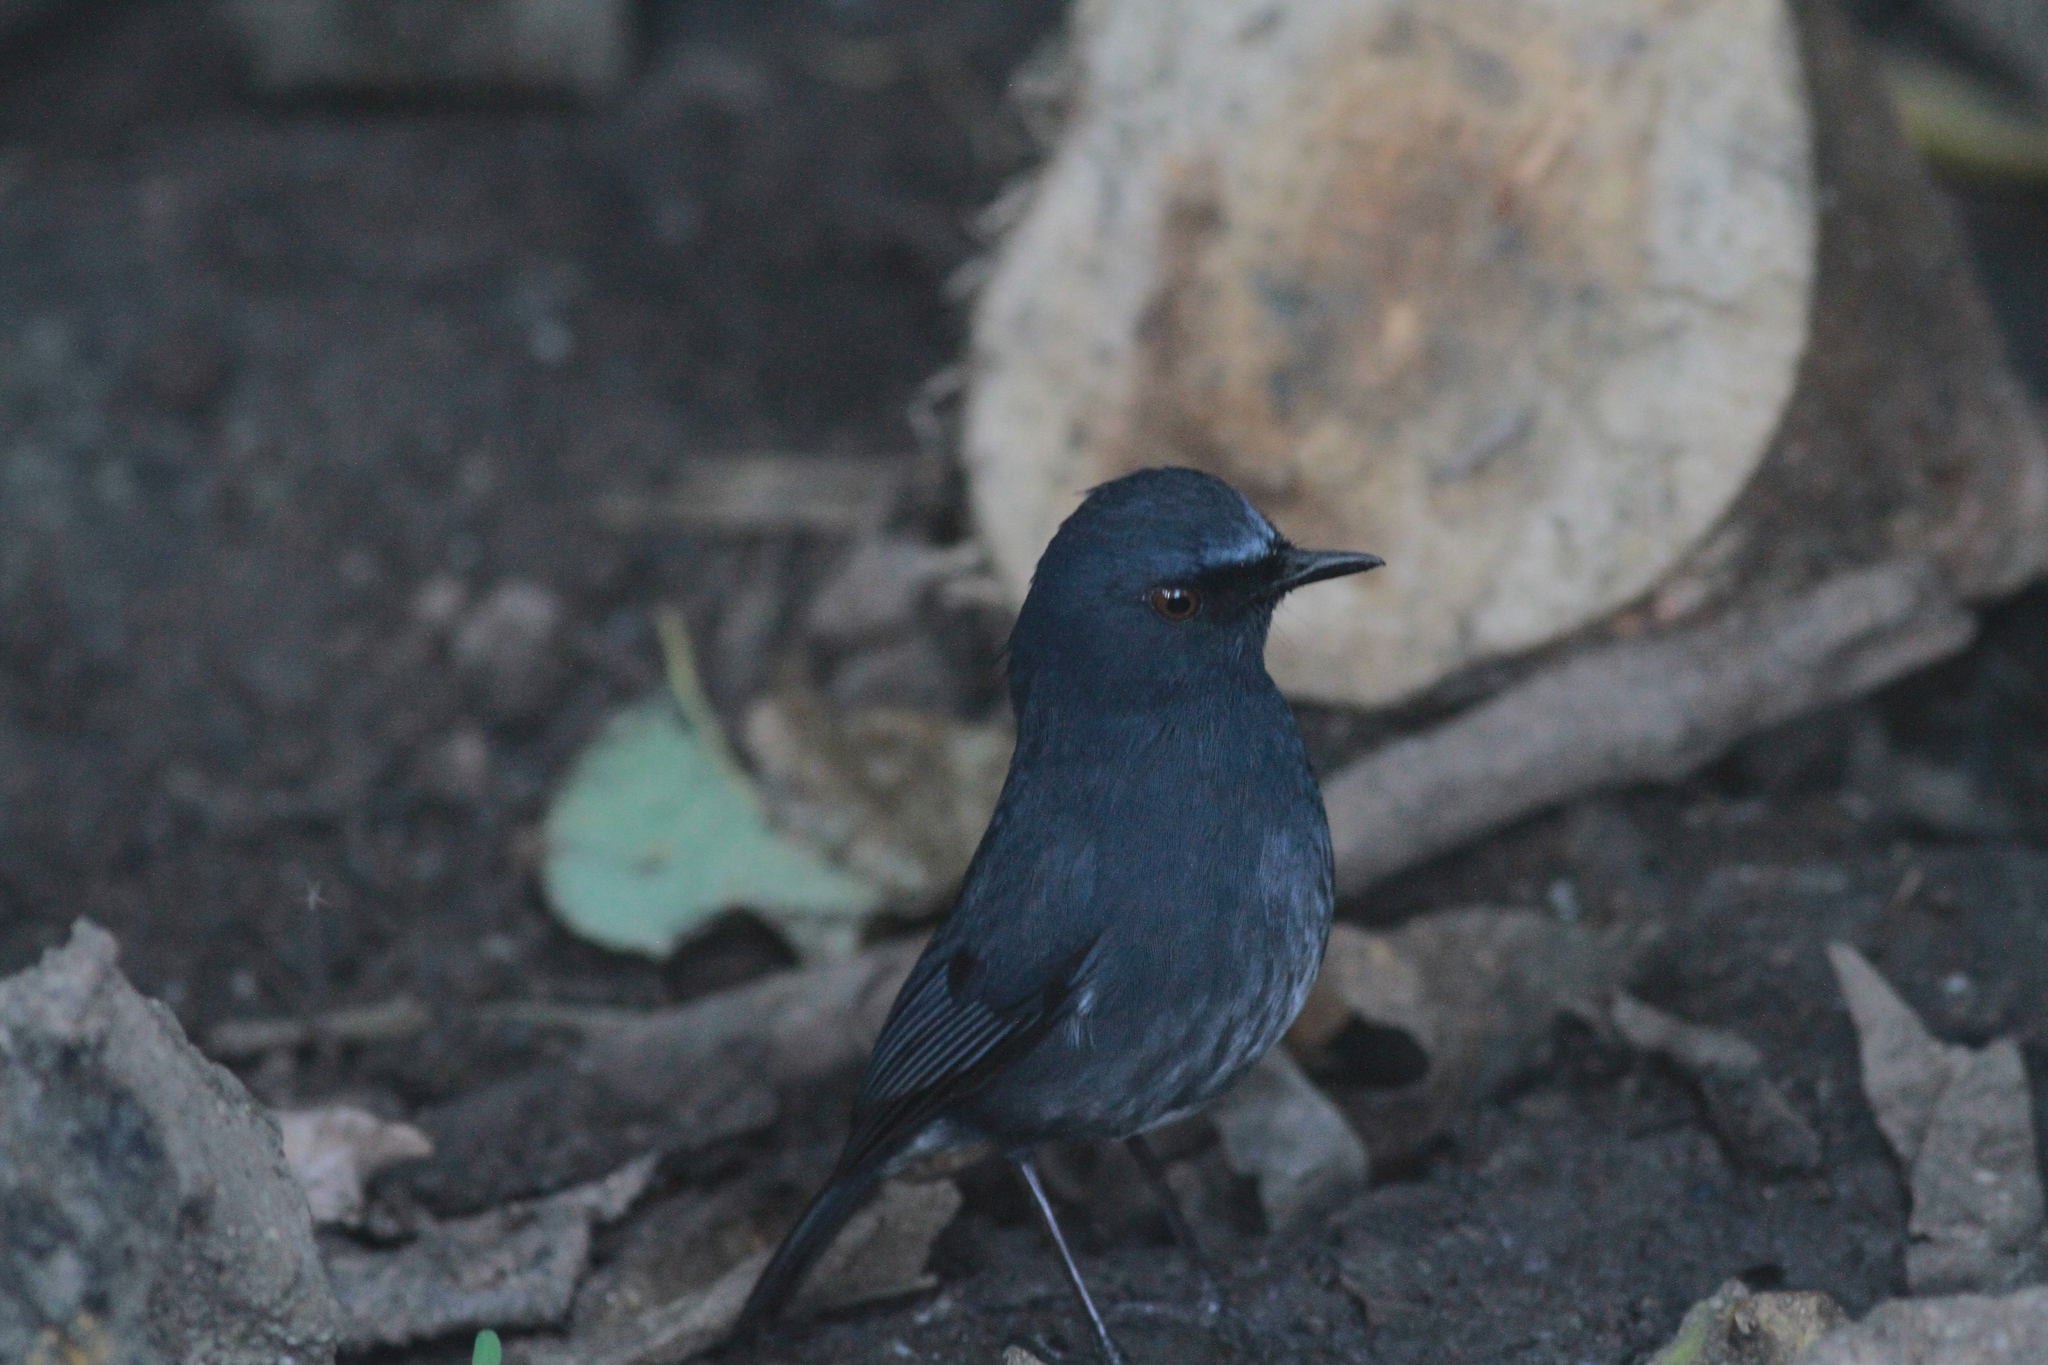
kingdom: Animalia
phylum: Chordata
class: Aves
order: Passeriformes
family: Muscicapidae
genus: Myiomela
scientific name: Myiomela albiventris
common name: White-bellied blue-robin
